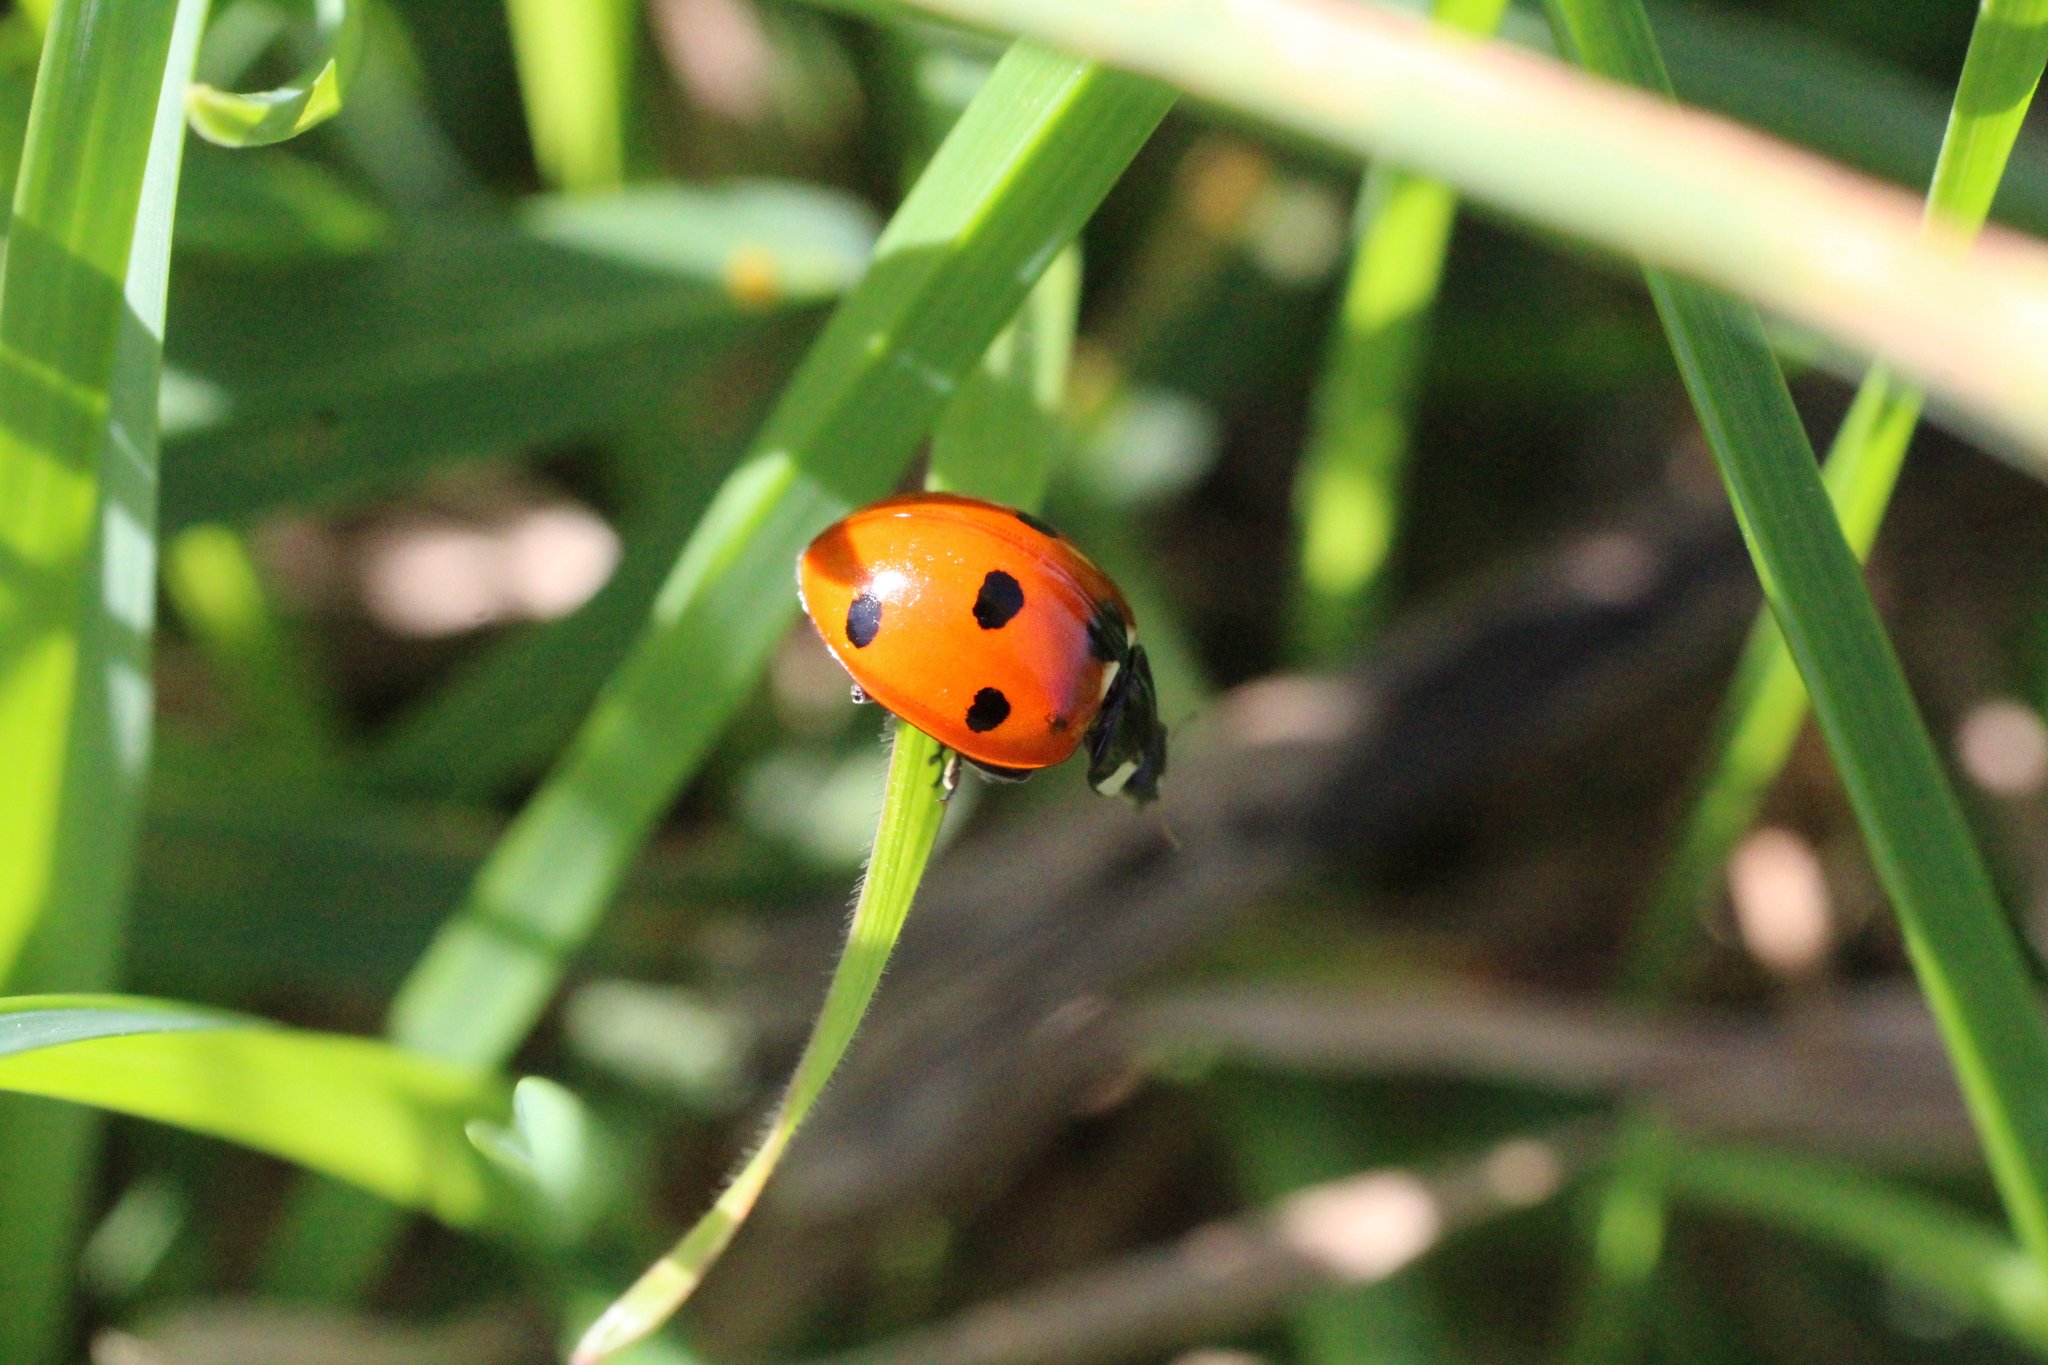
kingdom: Animalia
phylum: Arthropoda
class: Insecta
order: Coleoptera
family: Coccinellidae
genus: Coccinella
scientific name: Coccinella septempunctata
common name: Sevenspotted lady beetle
